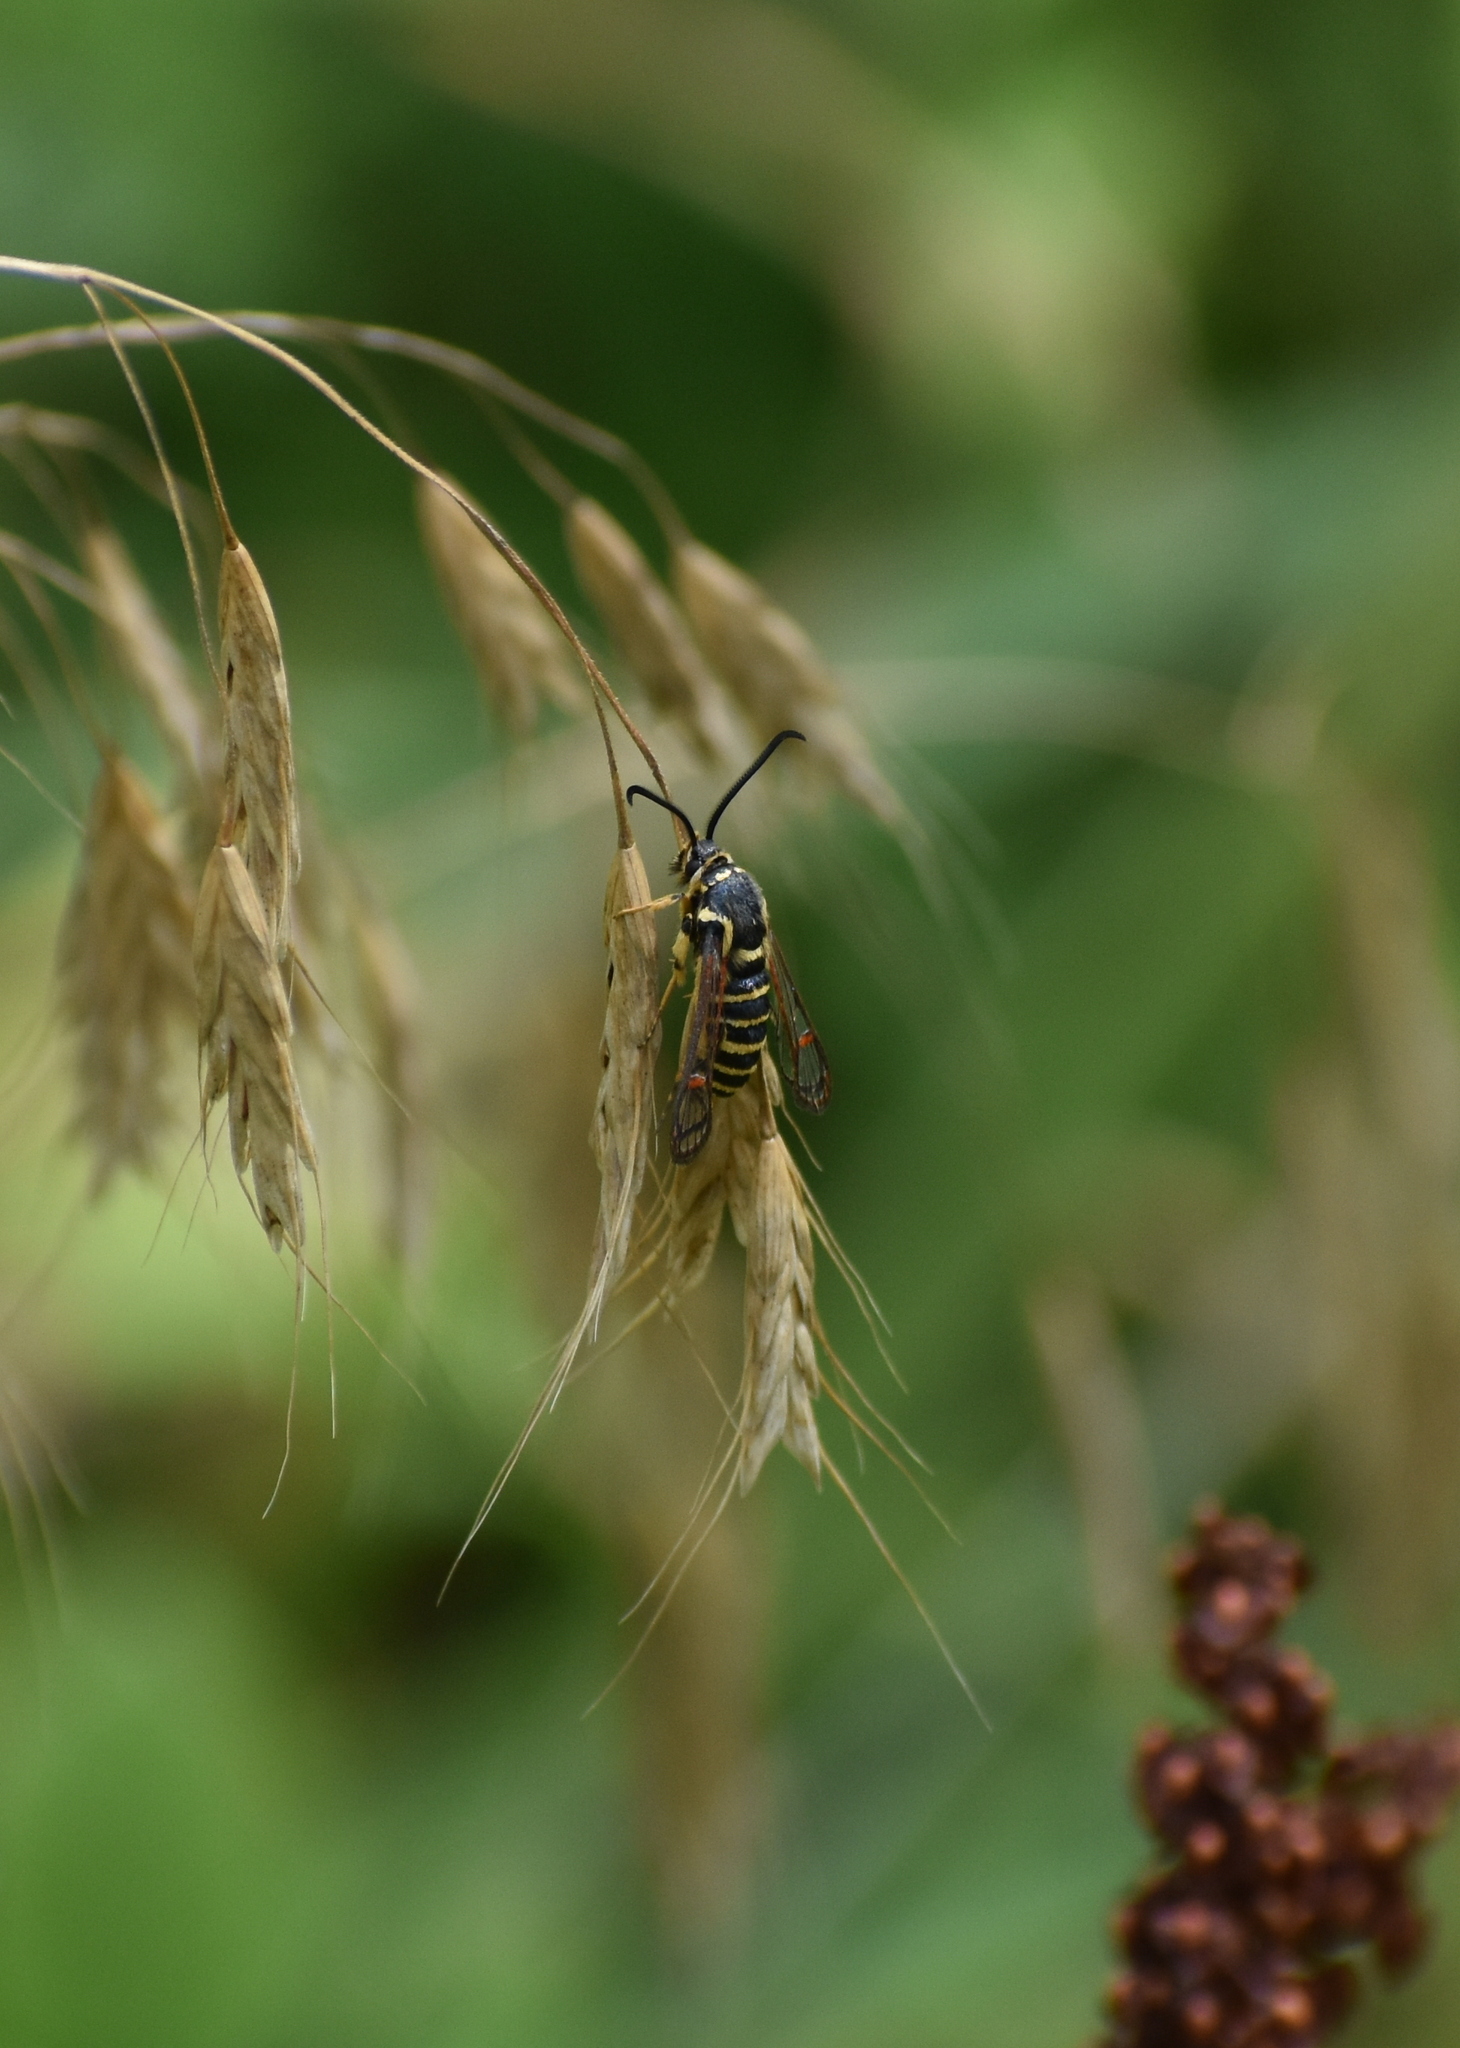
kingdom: Animalia
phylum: Arthropoda
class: Insecta
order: Lepidoptera
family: Sesiidae
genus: Synanthedon
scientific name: Synanthedon rileyana
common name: Riley's clearwing moth
